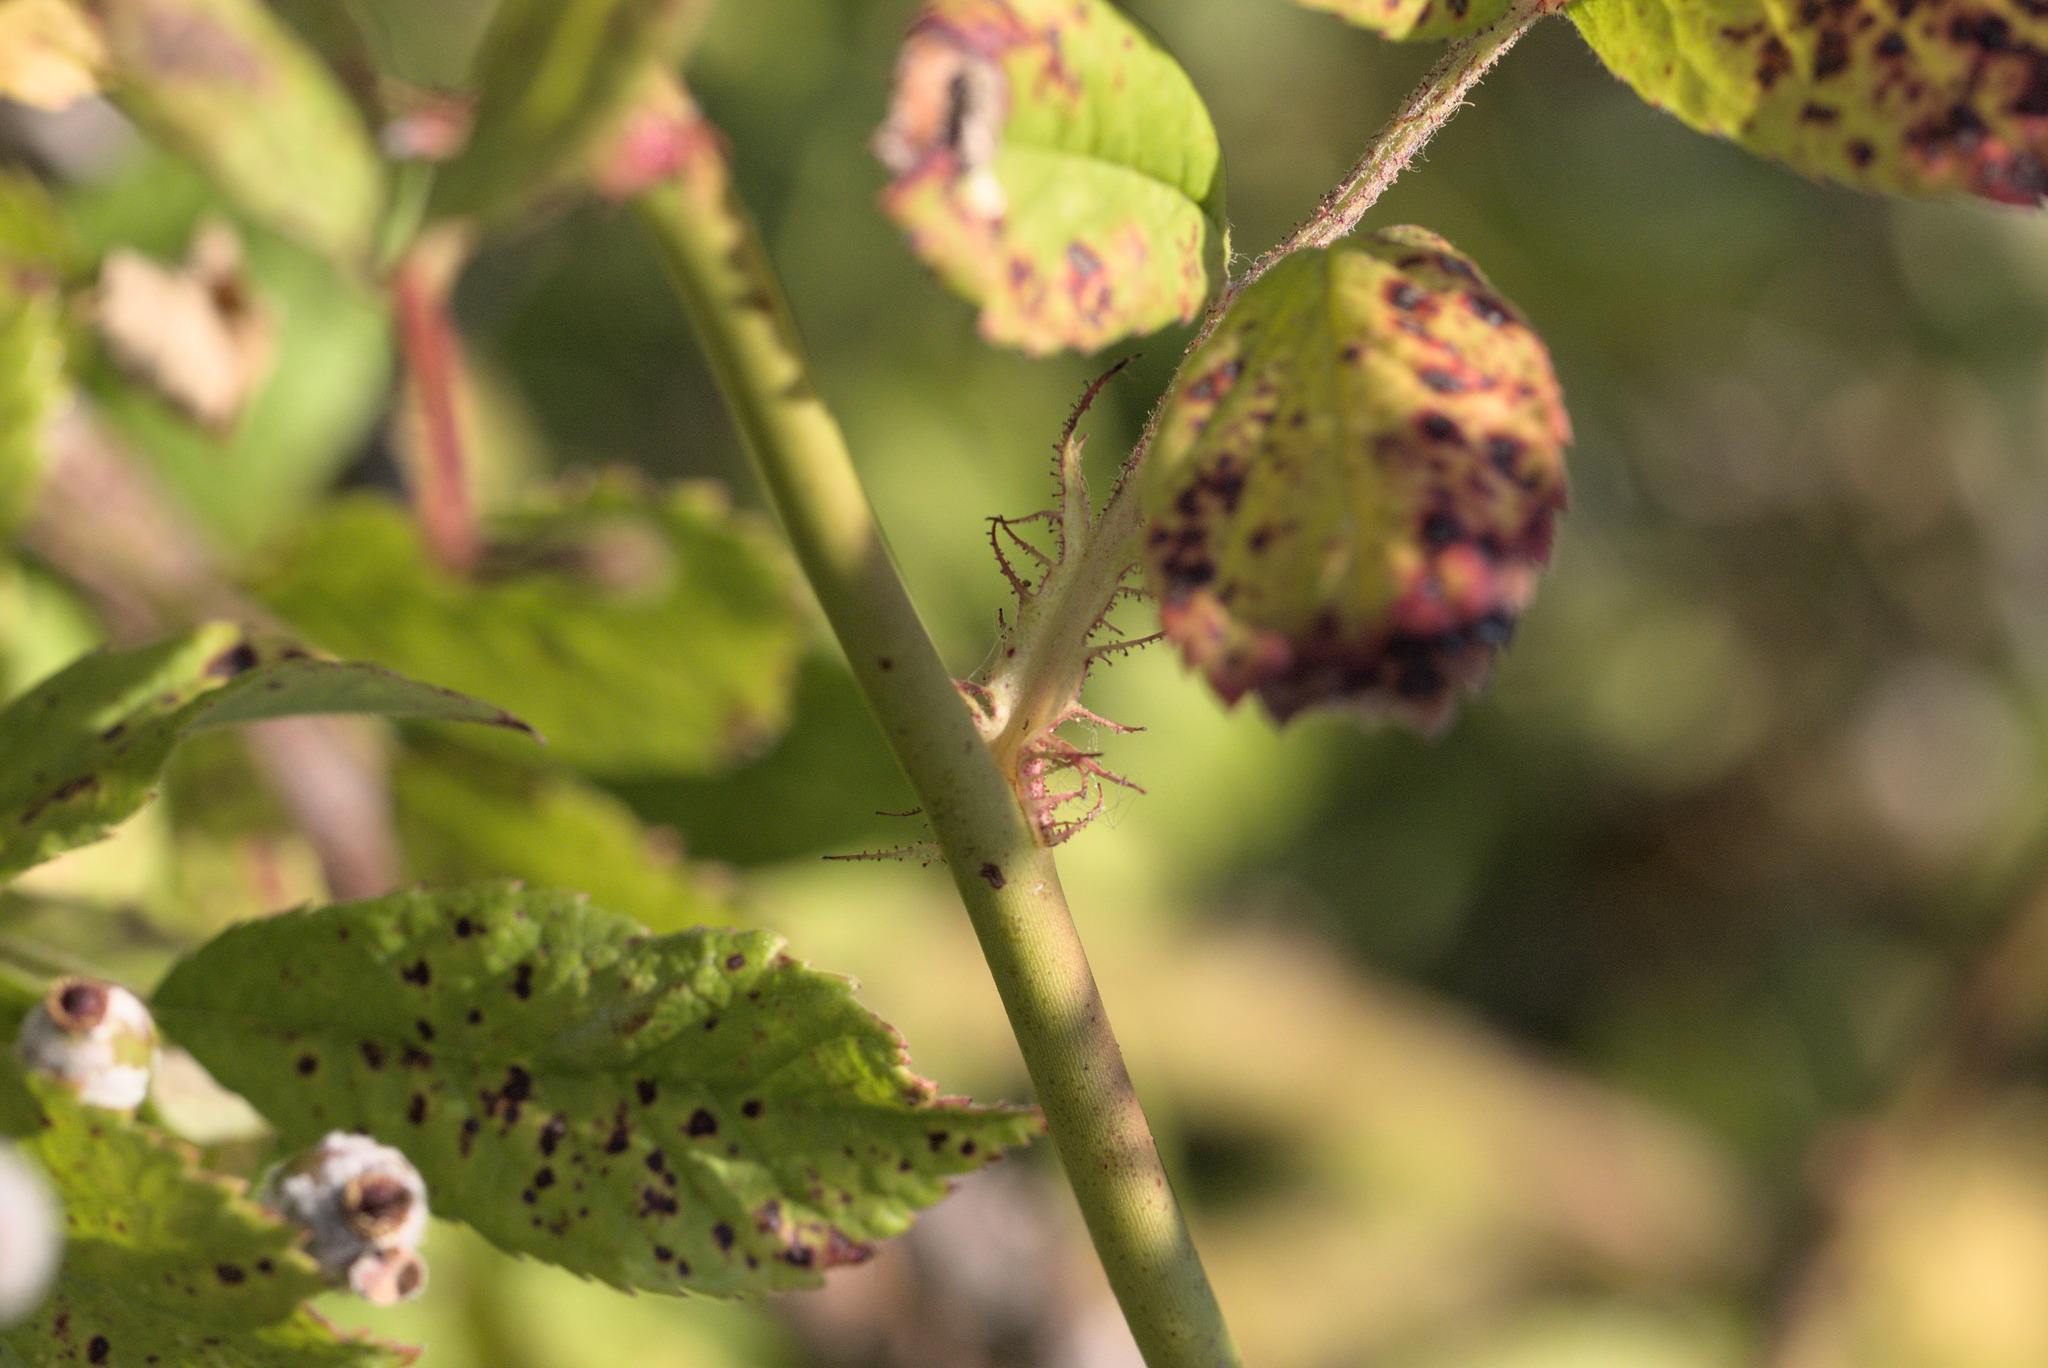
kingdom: Plantae
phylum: Tracheophyta
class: Magnoliopsida
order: Rosales
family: Rosaceae
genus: Rosa
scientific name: Rosa multiflora
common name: Multiflora rose
